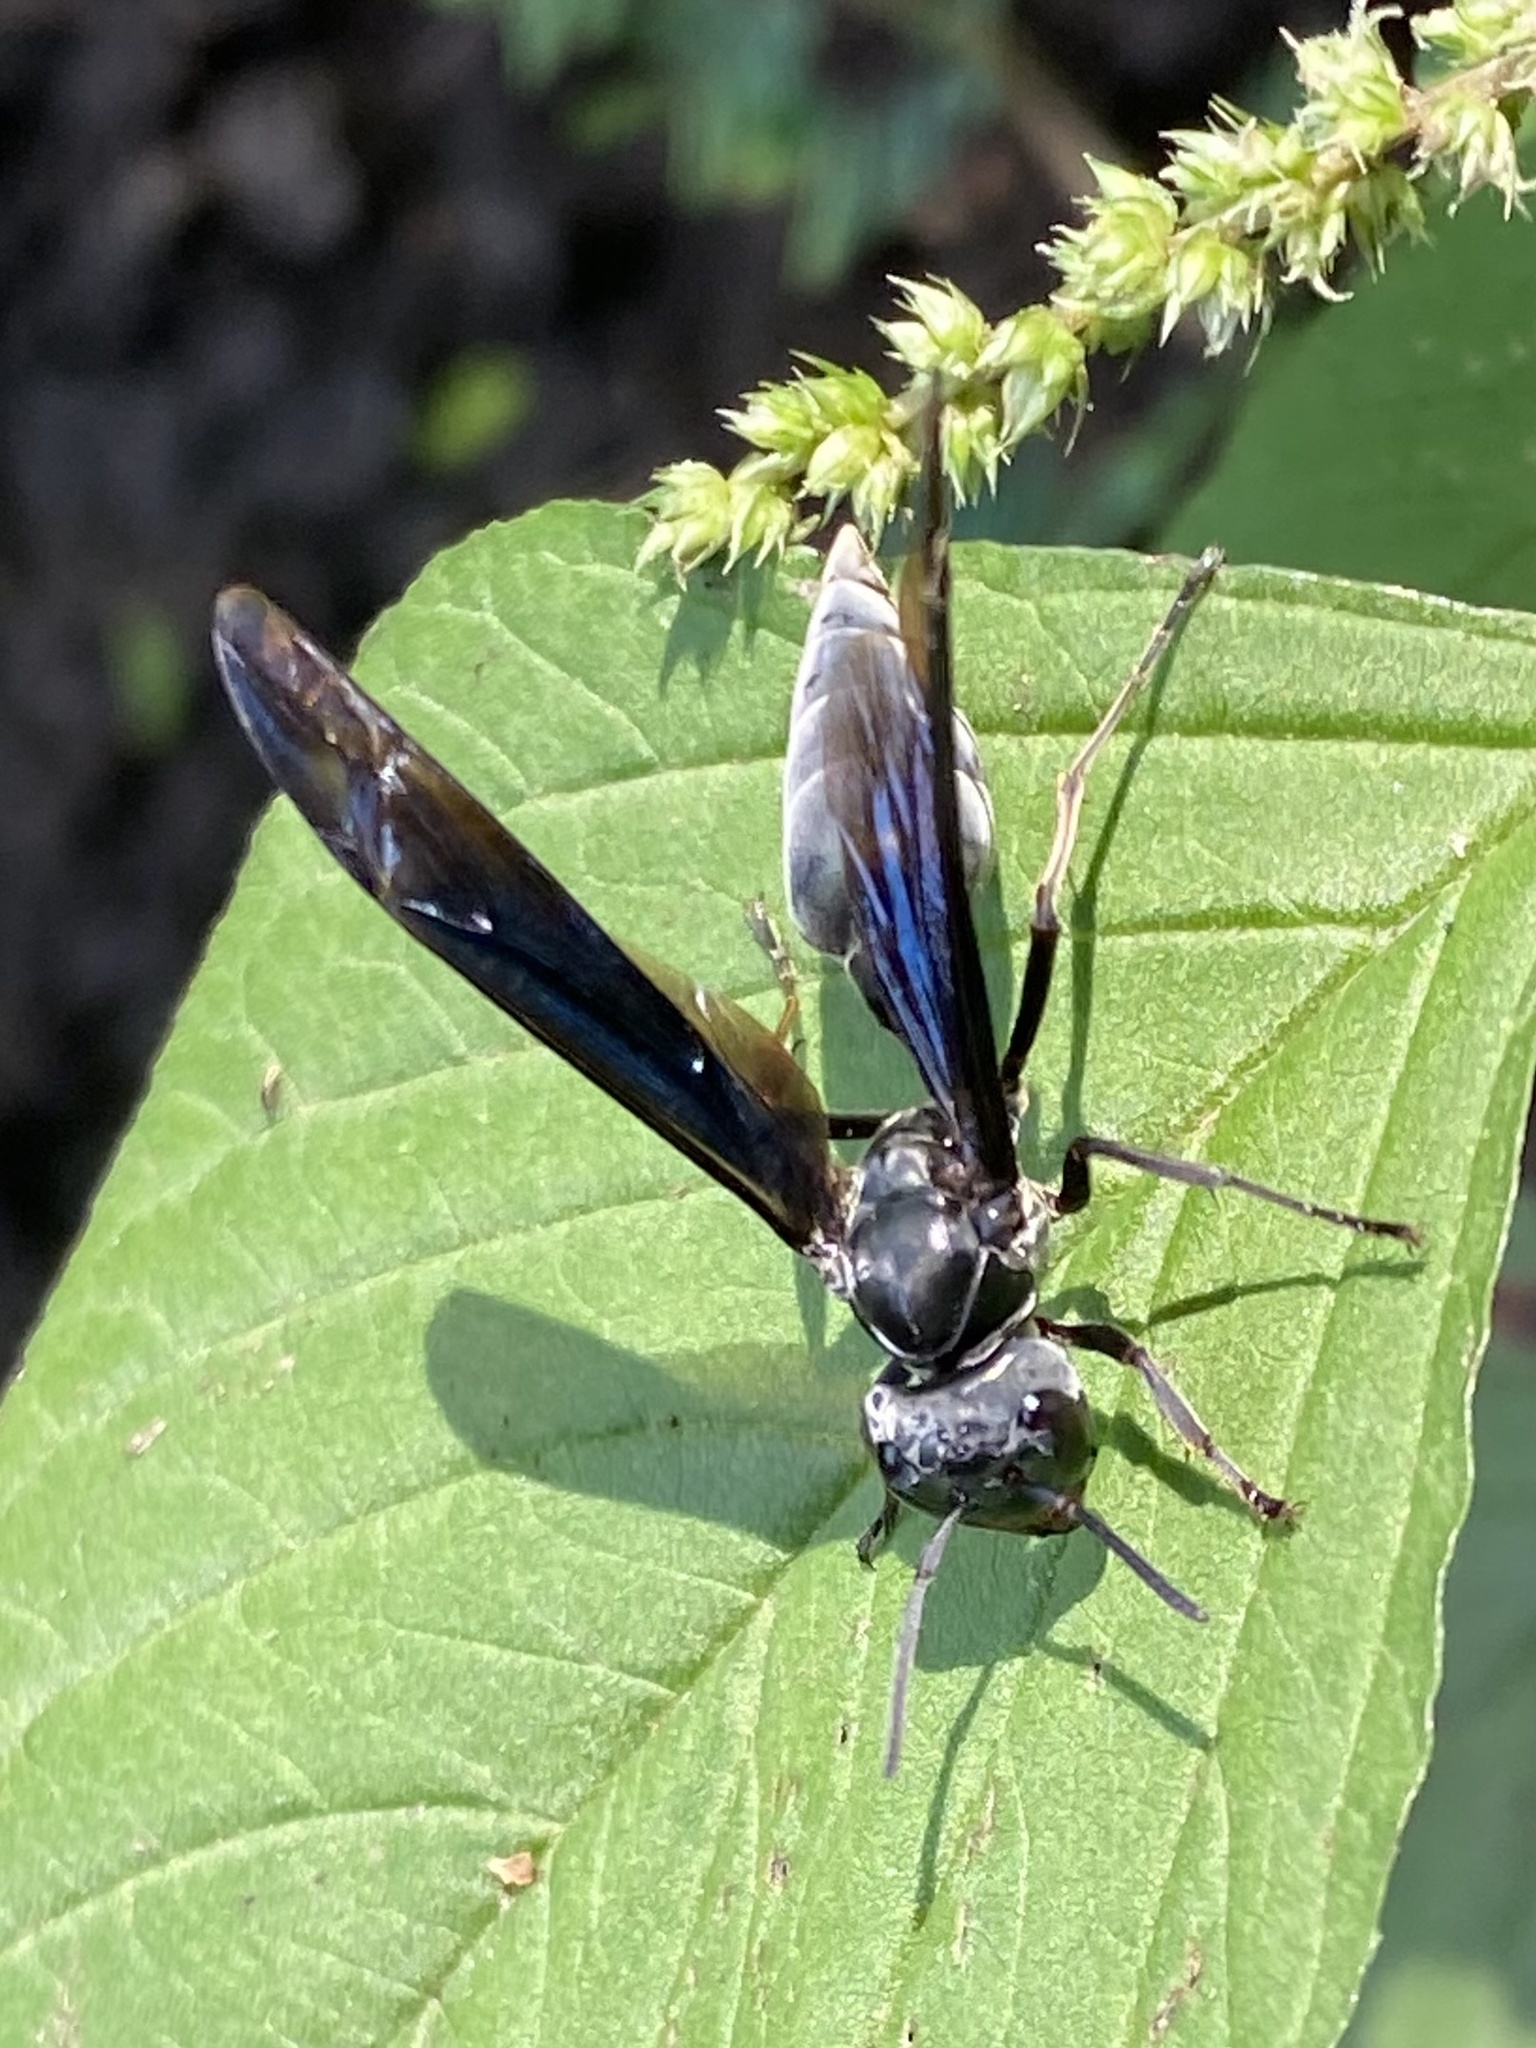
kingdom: Animalia
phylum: Arthropoda
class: Insecta
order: Hymenoptera
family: Vespidae
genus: Synoeca
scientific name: Synoeca septentrionalis
